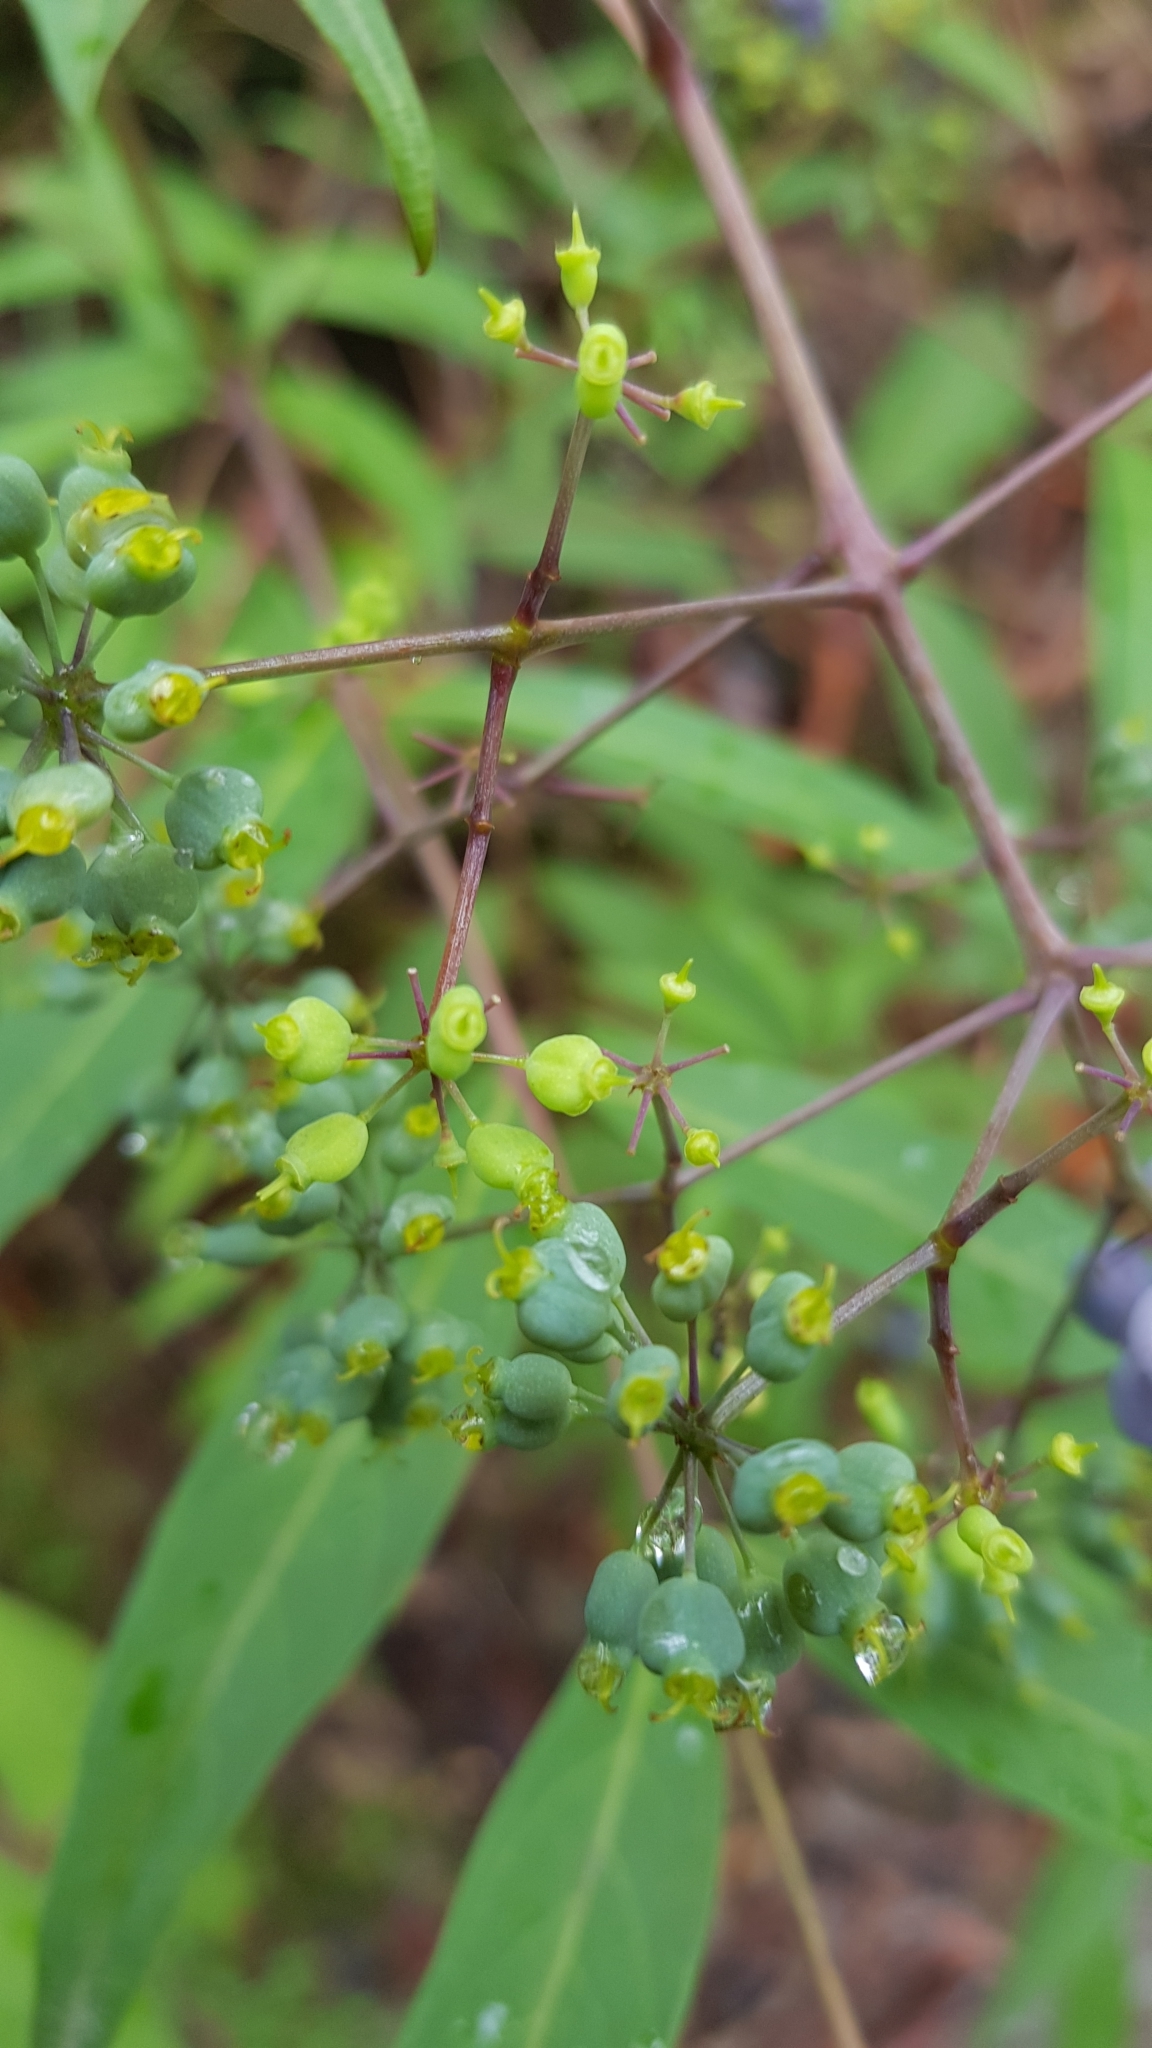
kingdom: Plantae
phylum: Tracheophyta
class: Magnoliopsida
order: Apiales
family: Araliaceae
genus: Polyscias
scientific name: Polyscias sambucifolia
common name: Elderberry-ash
